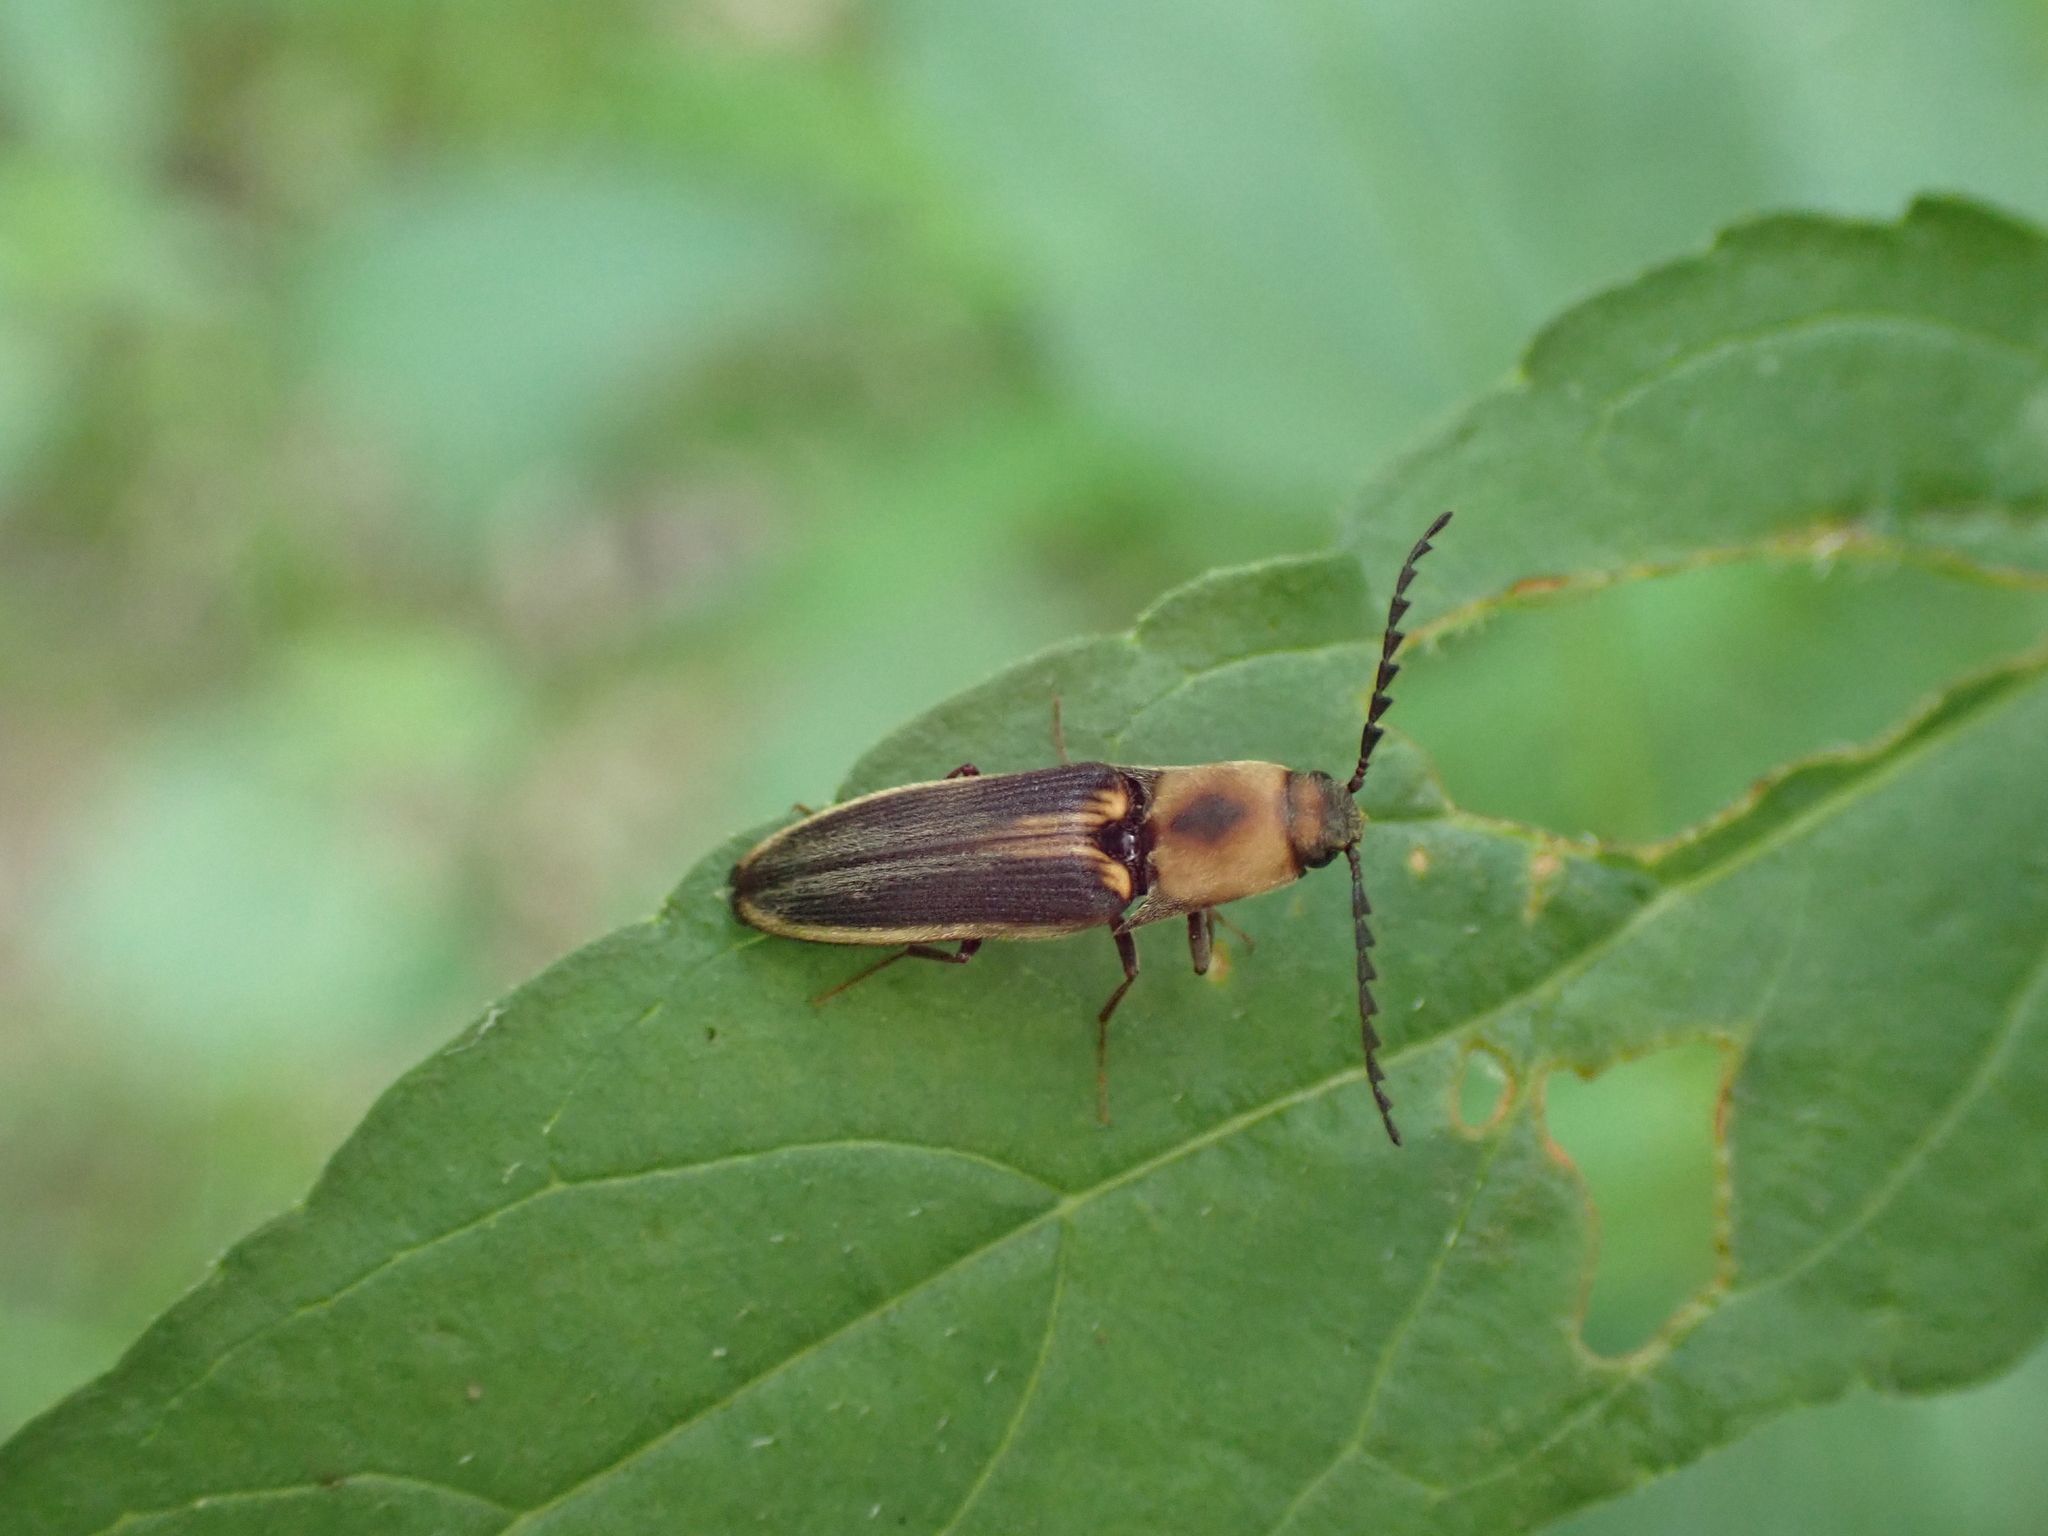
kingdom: Animalia
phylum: Arthropoda
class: Insecta
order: Coleoptera
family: Elateridae
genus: Megapenthes
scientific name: Megapenthes
